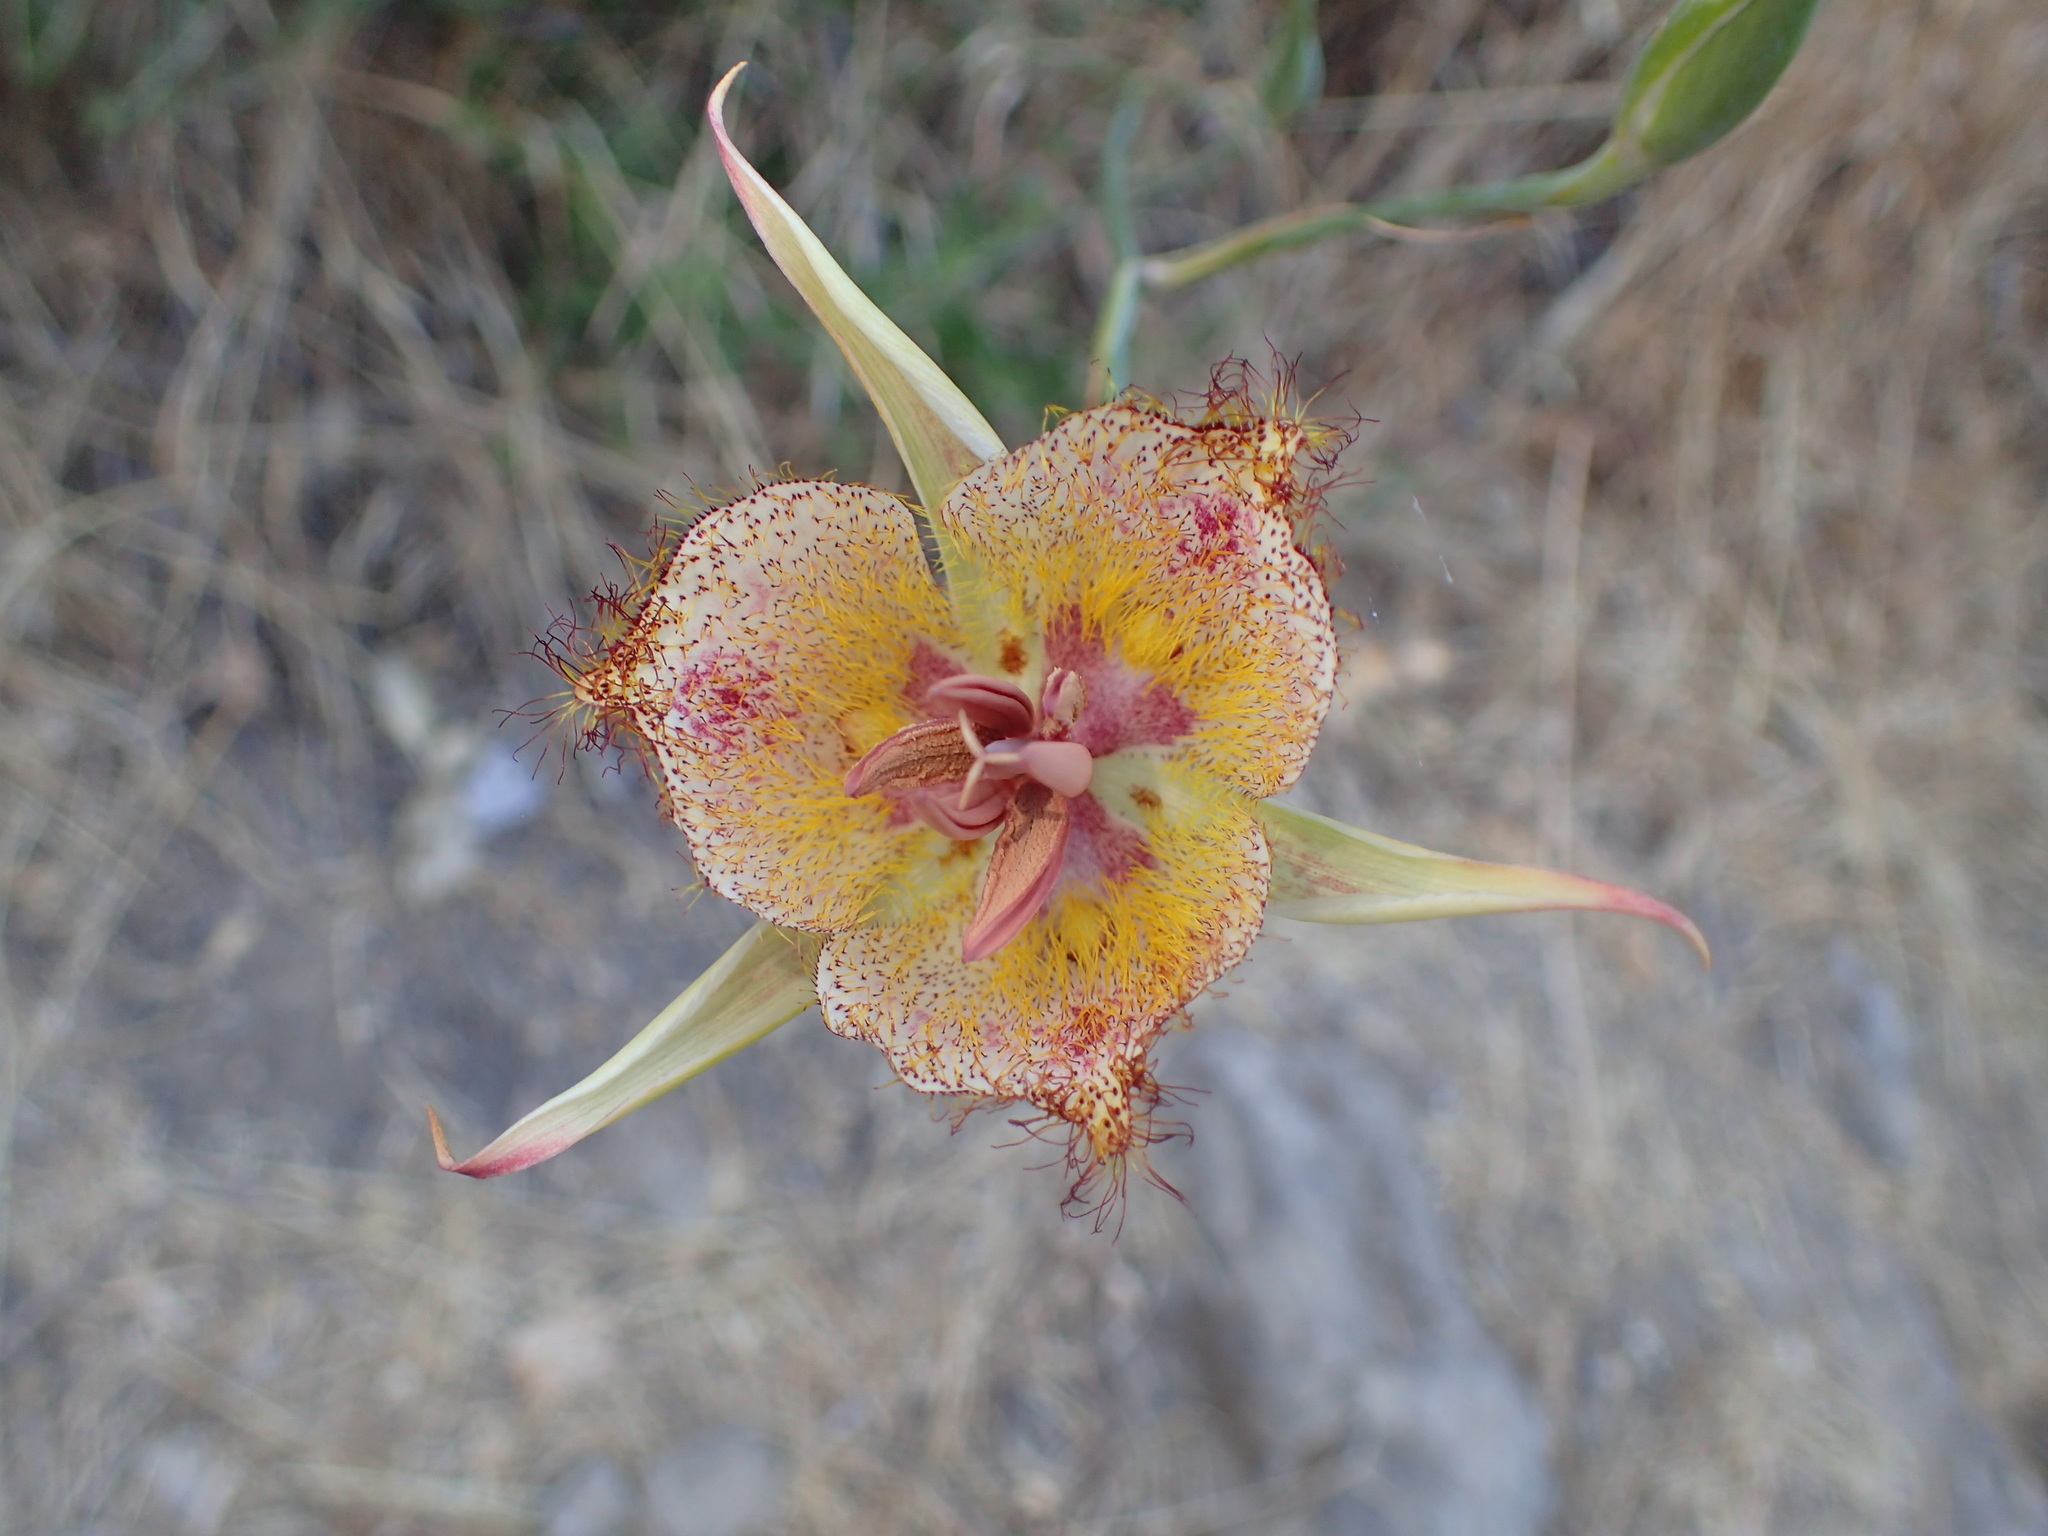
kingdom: Plantae
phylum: Tracheophyta
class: Liliopsida
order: Liliales
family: Liliaceae
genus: Calochortus
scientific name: Calochortus fimbriatus
